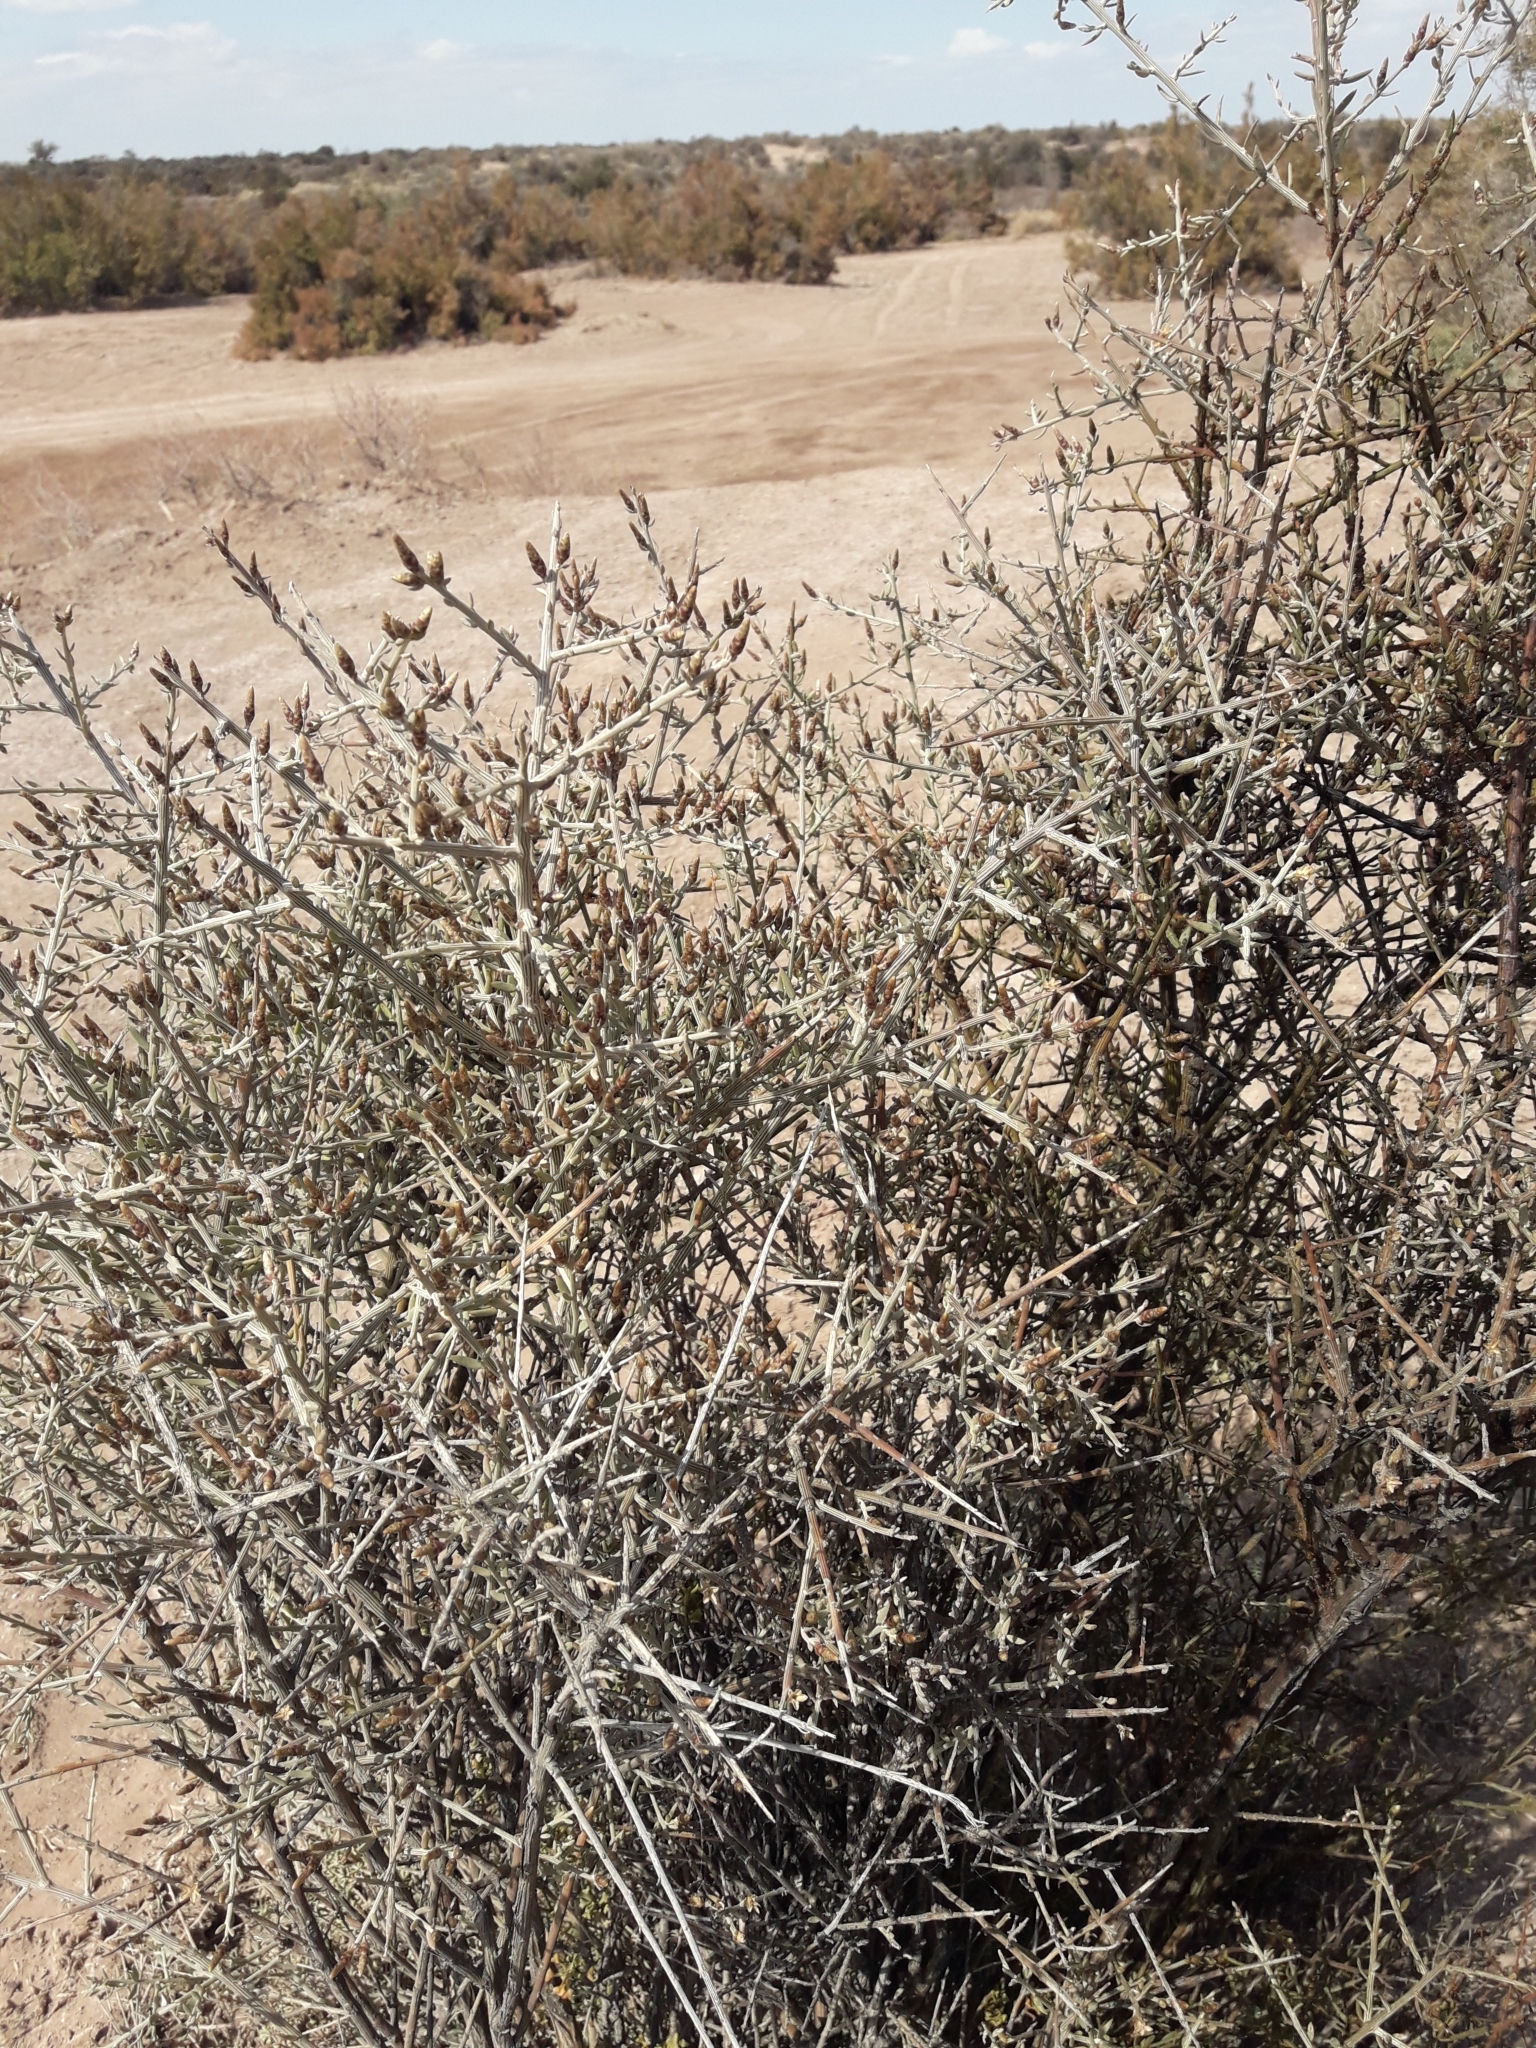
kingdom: Plantae
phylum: Tracheophyta
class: Magnoliopsida
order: Asterales
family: Asteraceae
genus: Cyclolepis
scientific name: Cyclolepis genistoides
